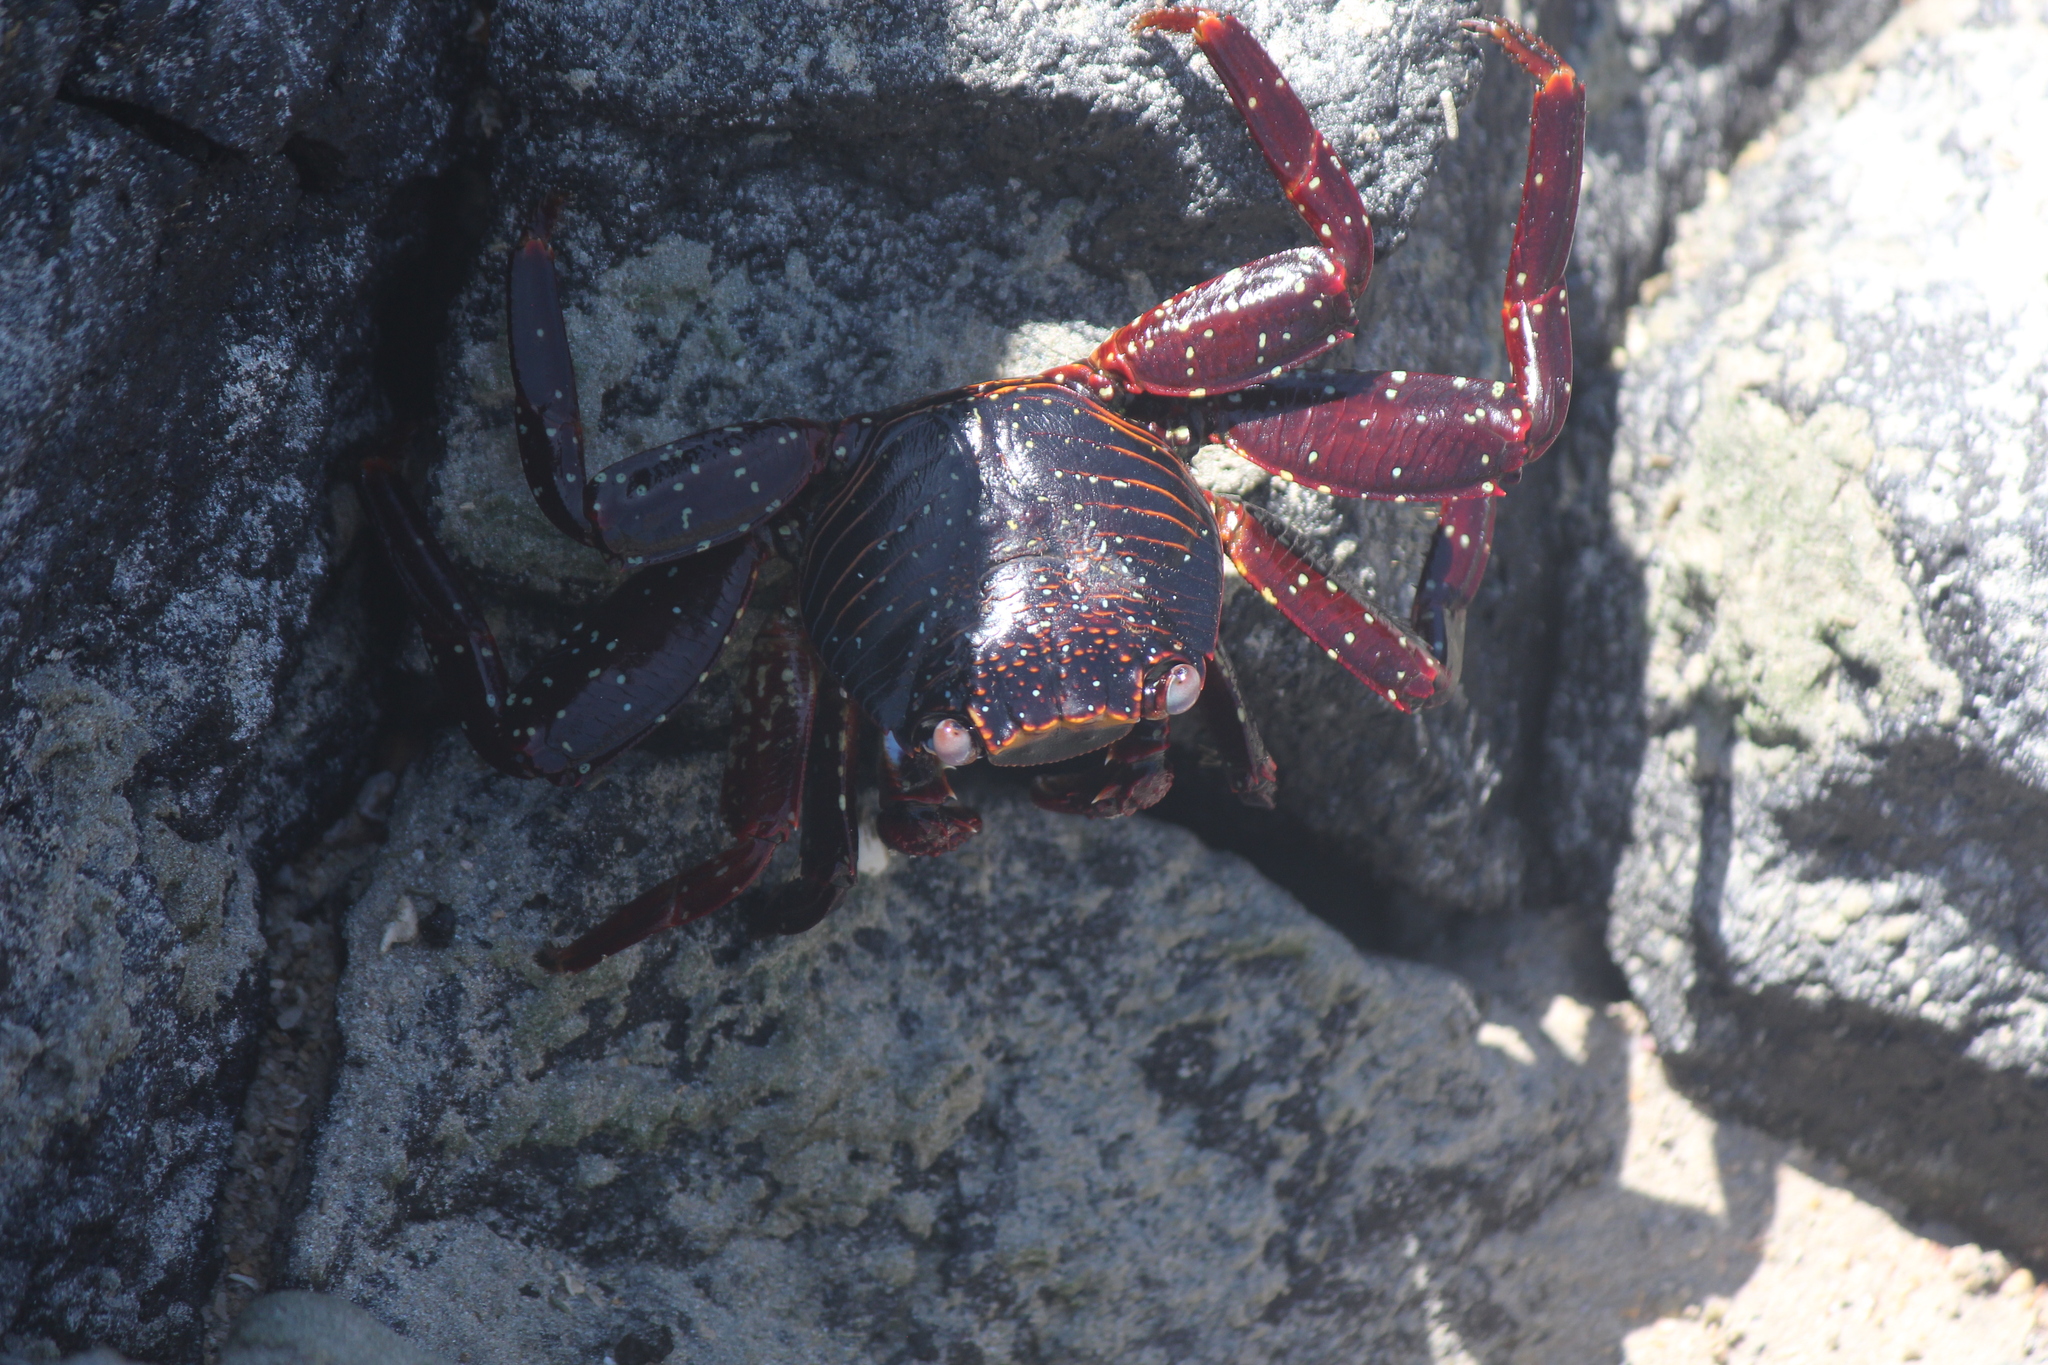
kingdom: Animalia
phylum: Arthropoda
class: Malacostraca
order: Decapoda
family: Grapsidae
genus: Grapsus
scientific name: Grapsus grapsus
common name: Sally lightfoot
